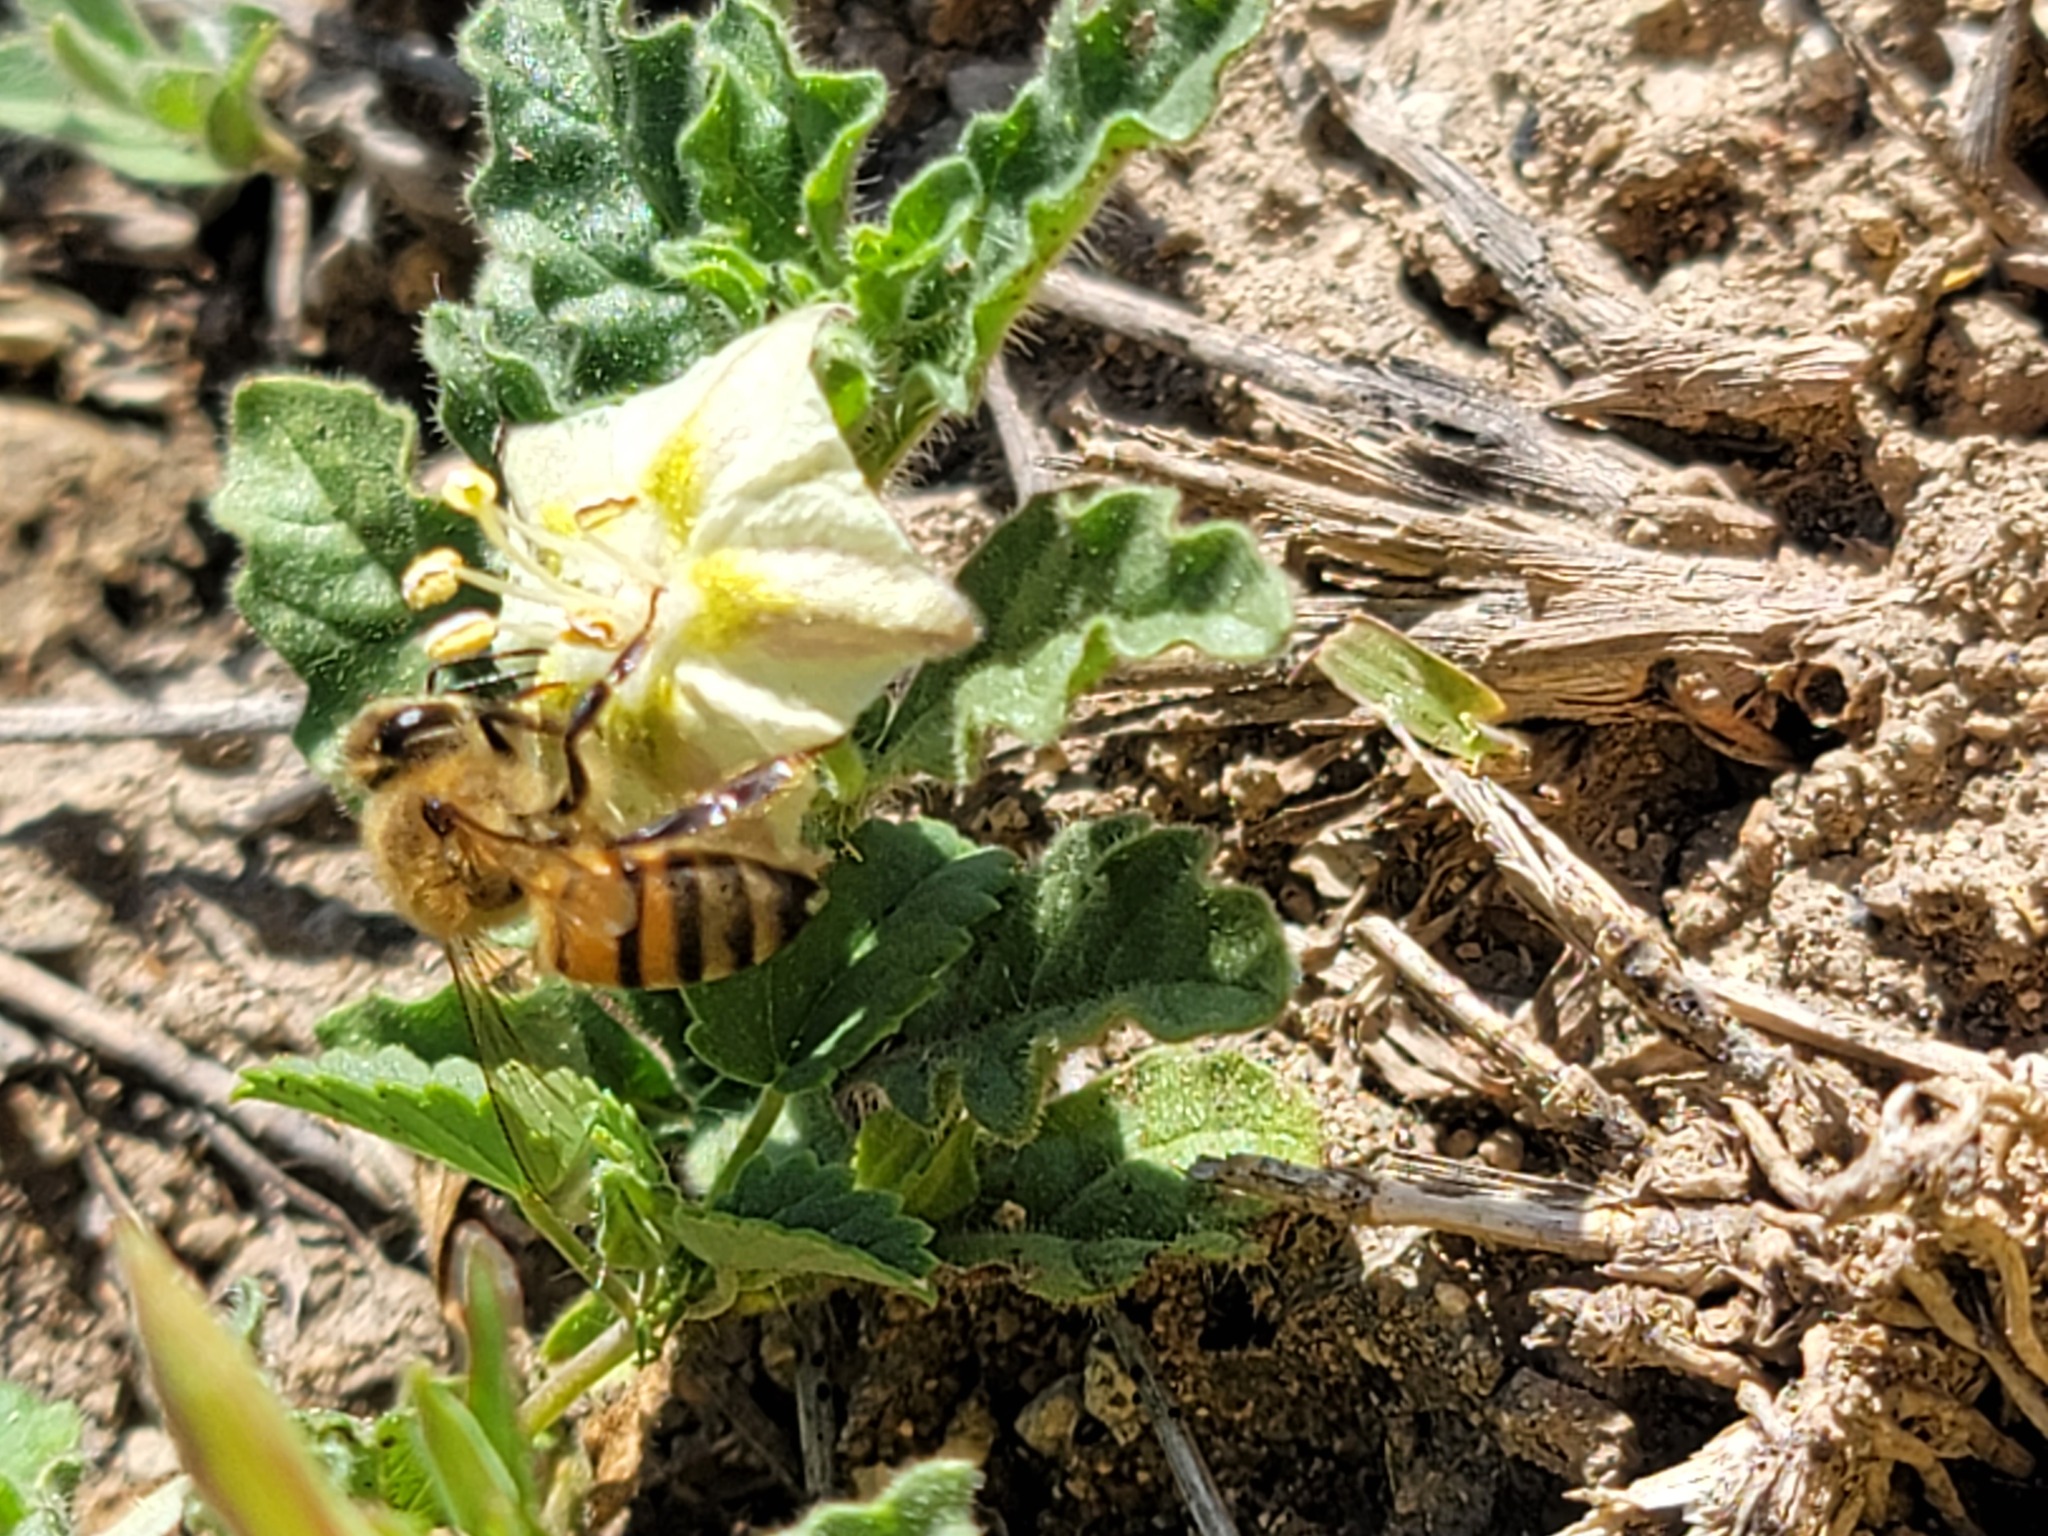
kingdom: Animalia
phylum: Arthropoda
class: Insecta
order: Hymenoptera
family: Apidae
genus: Apis
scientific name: Apis mellifera
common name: Honey bee
